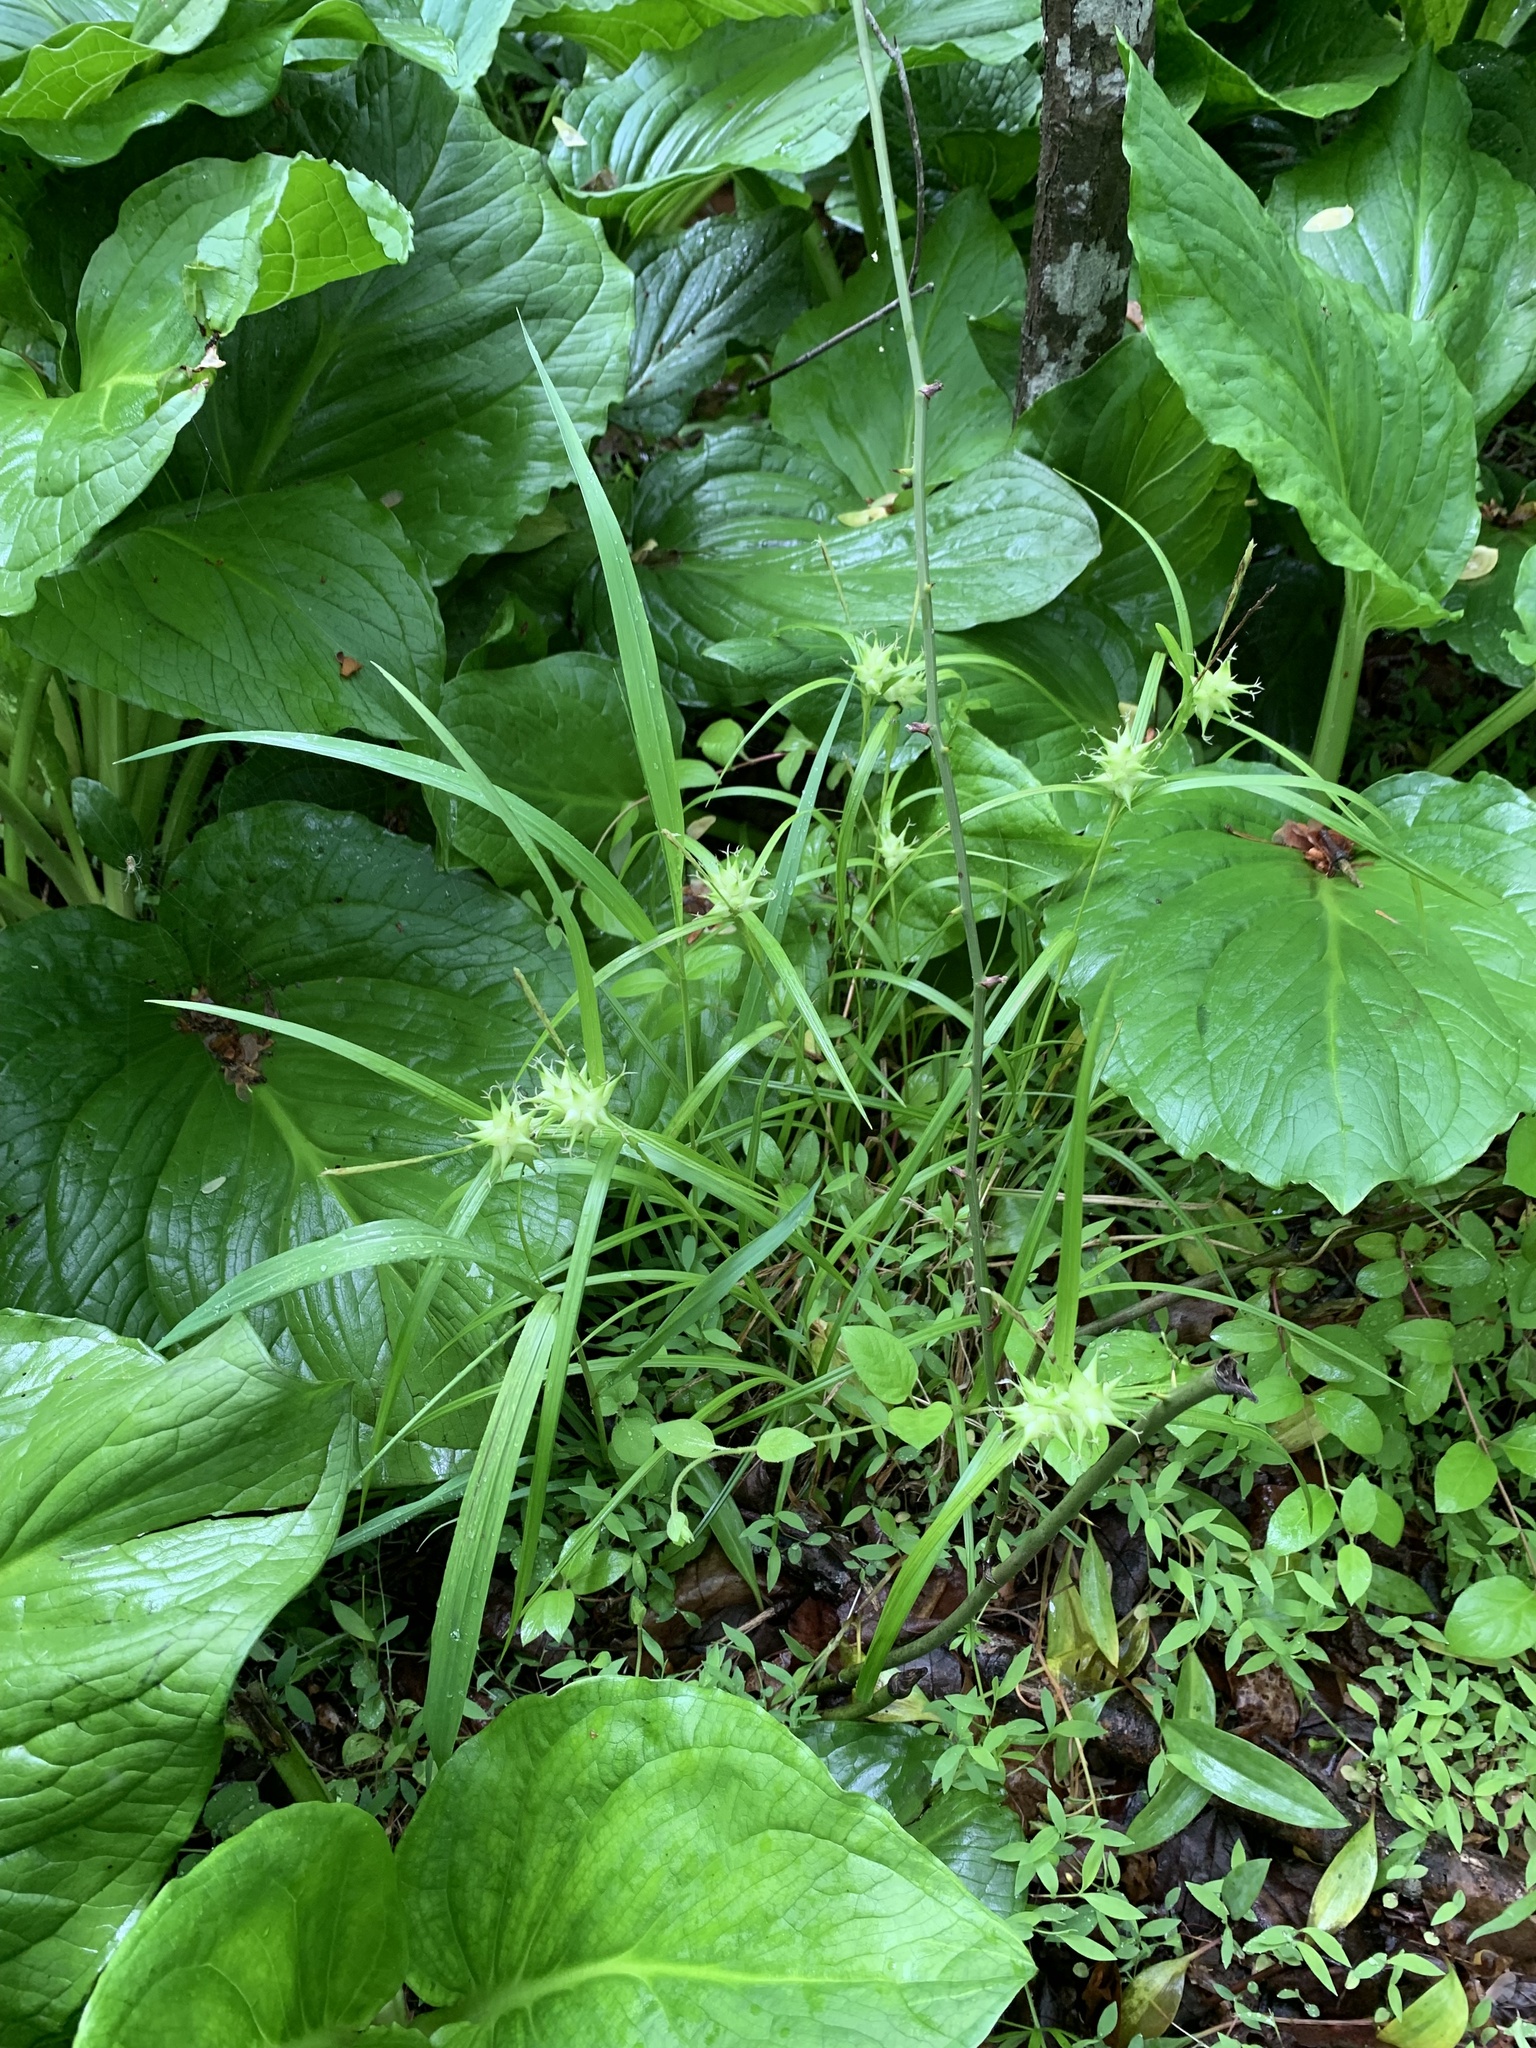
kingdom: Plantae
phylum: Tracheophyta
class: Liliopsida
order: Poales
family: Cyperaceae
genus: Carex
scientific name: Carex intumescens
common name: Greater bladder sedge
